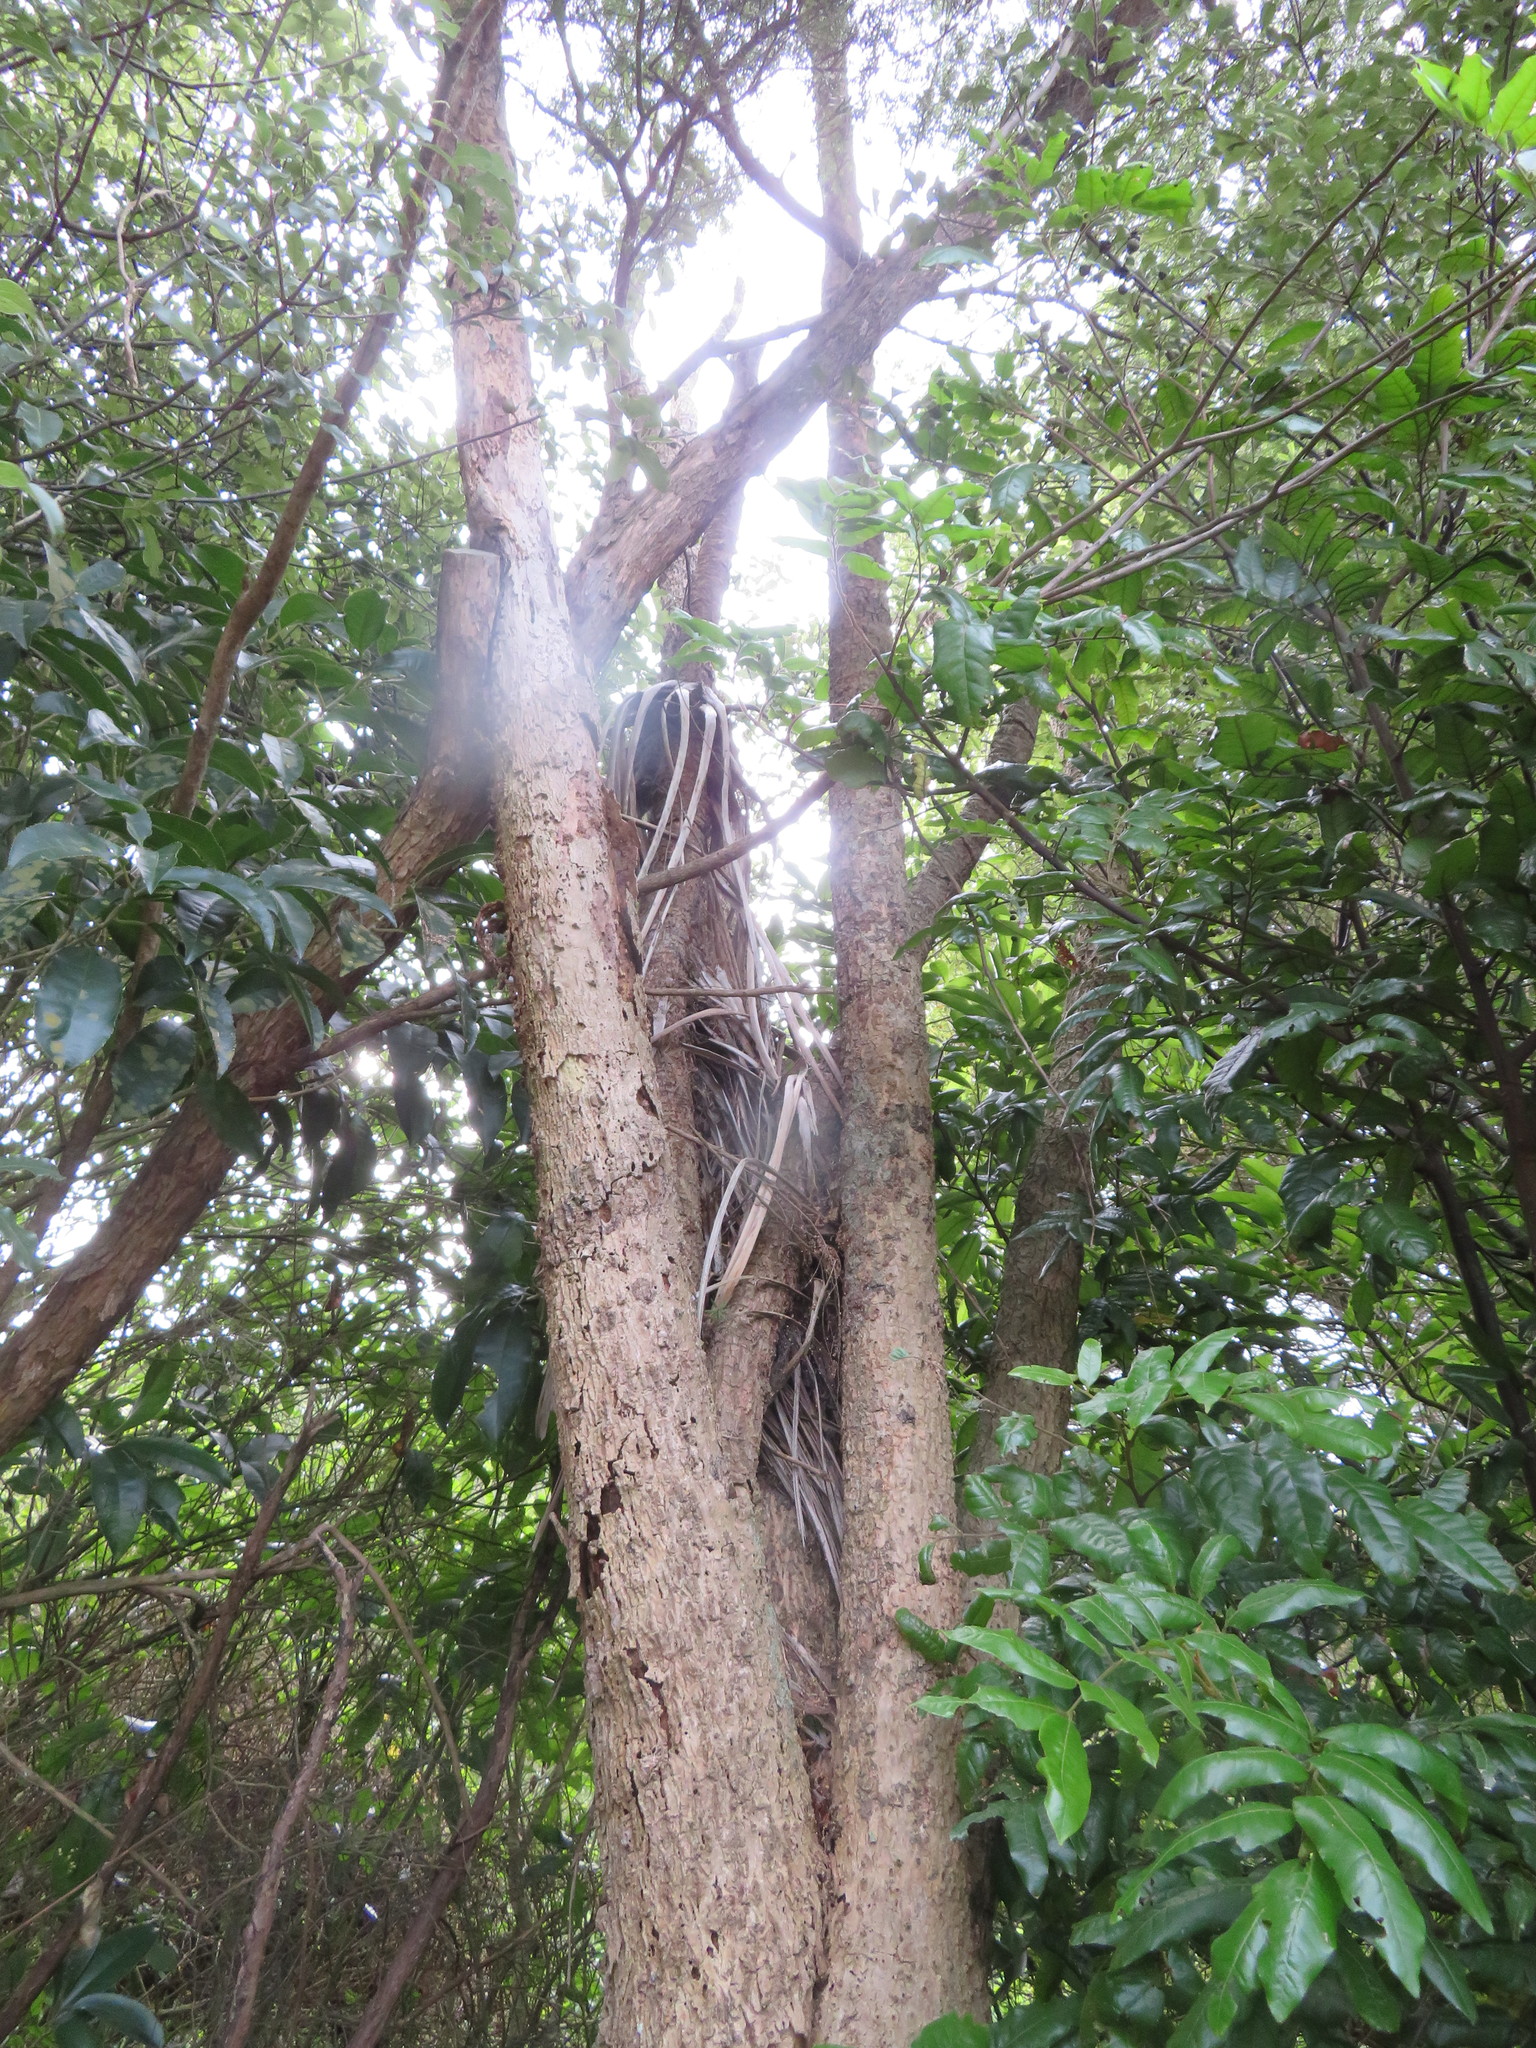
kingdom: Plantae
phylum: Tracheophyta
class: Magnoliopsida
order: Sapindales
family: Sapindaceae
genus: Alectryon
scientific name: Alectryon excelsus
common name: Three kings titoki
